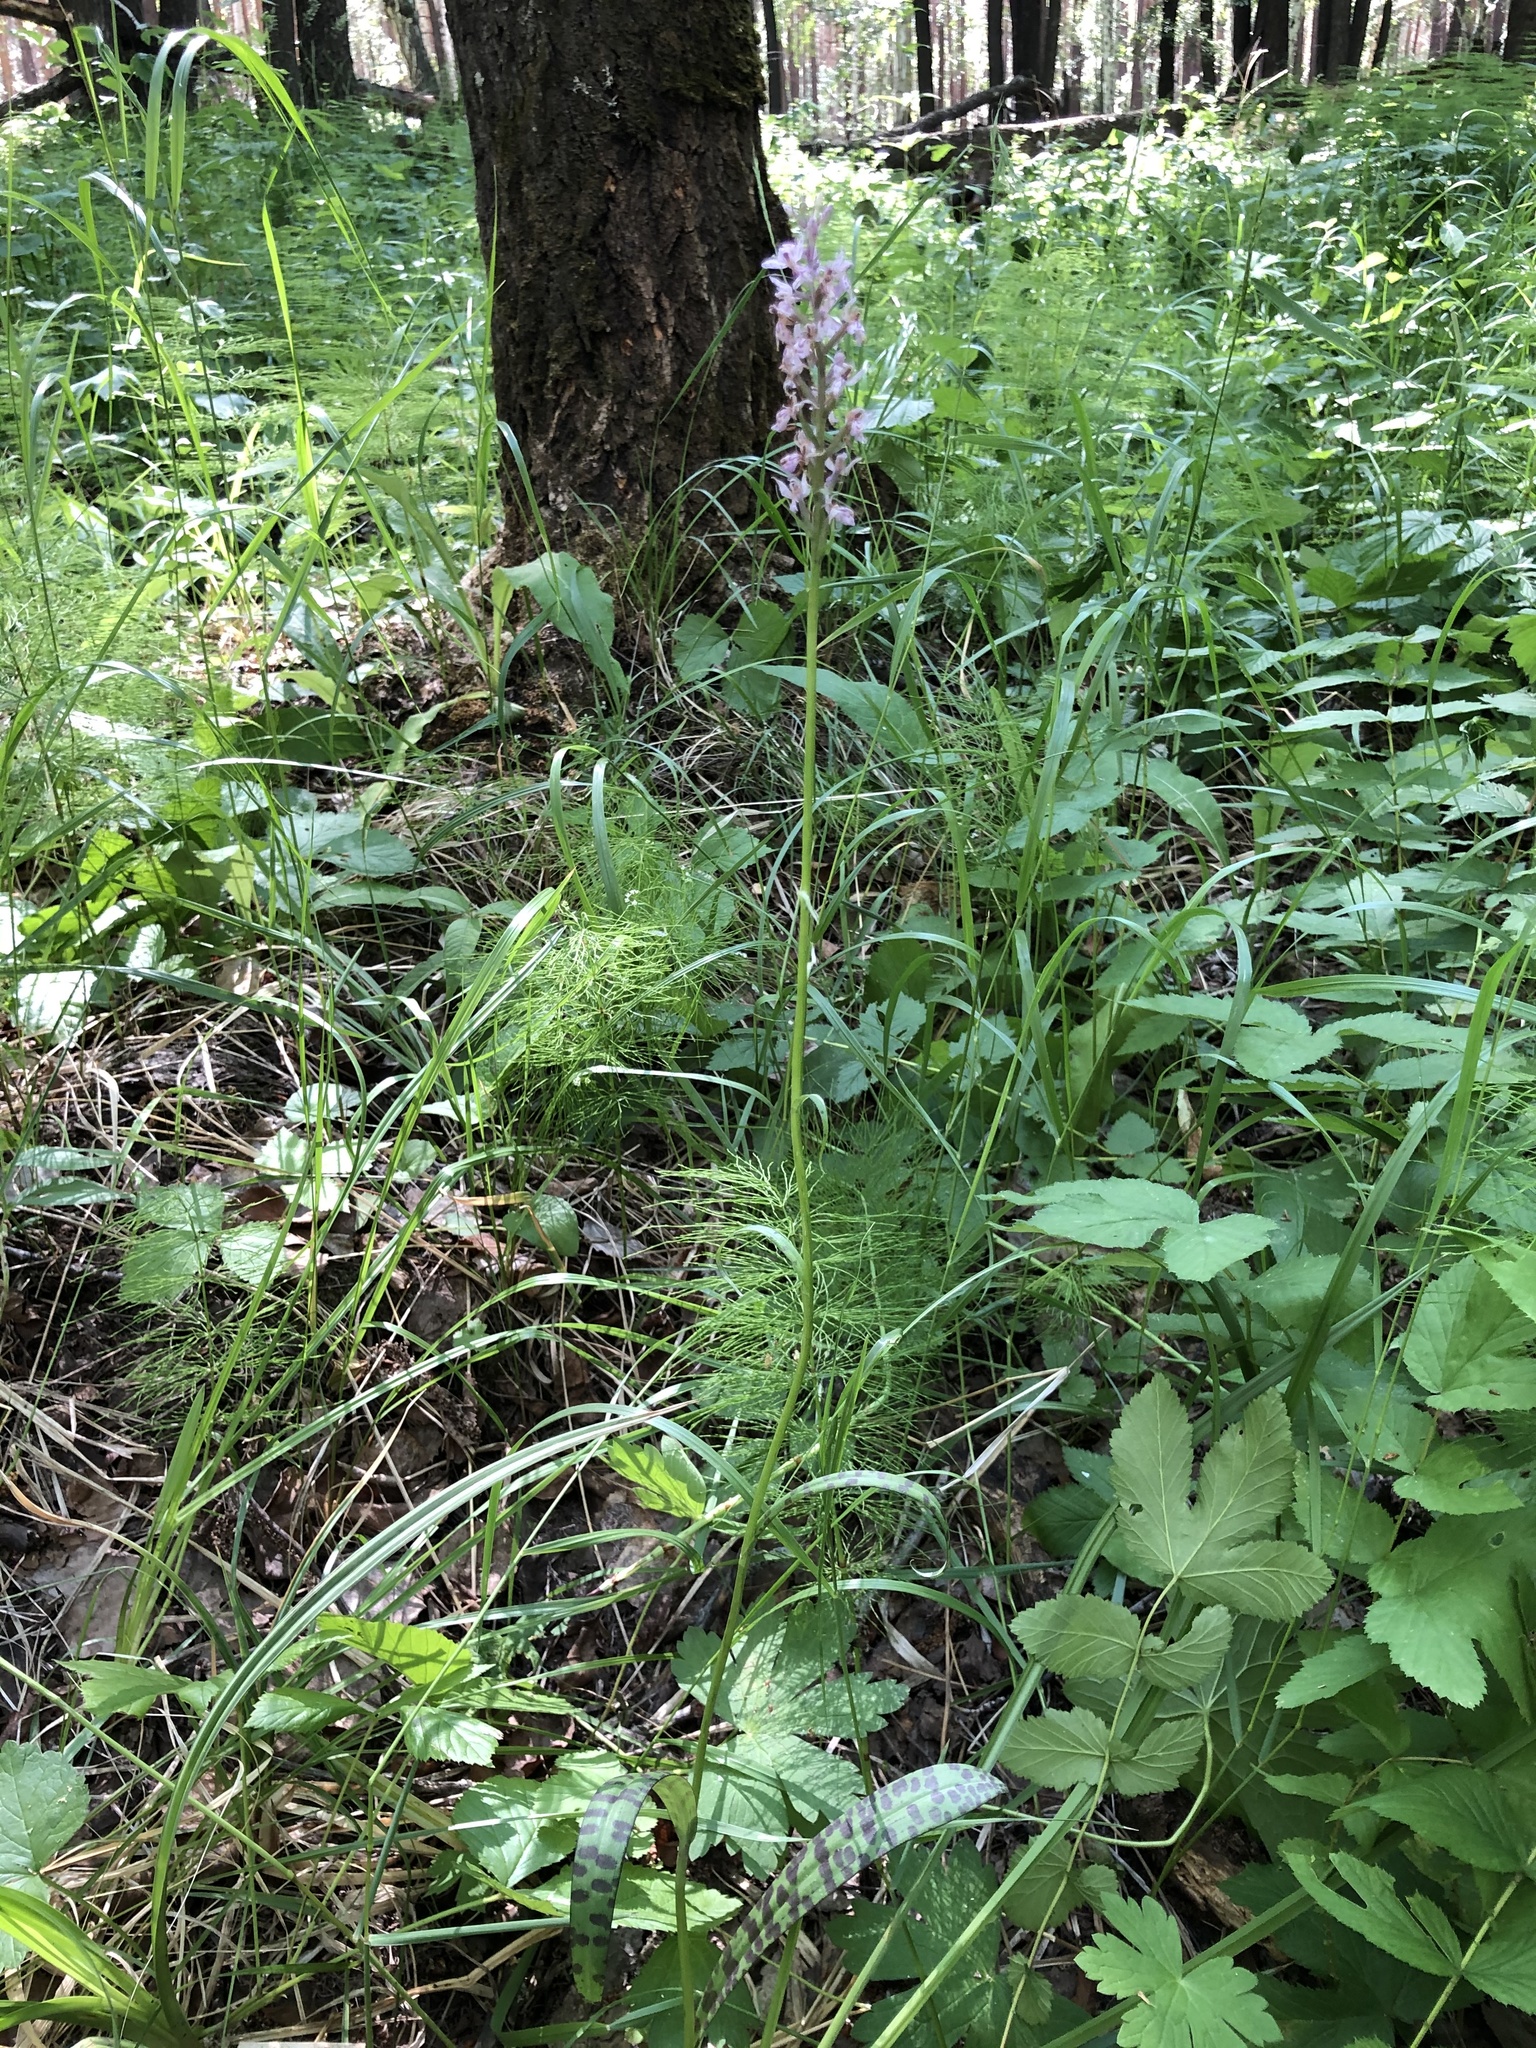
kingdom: Plantae
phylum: Tracheophyta
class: Liliopsida
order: Asparagales
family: Orchidaceae
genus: Dactylorhiza
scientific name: Dactylorhiza maculata
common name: Heath spotted-orchid
